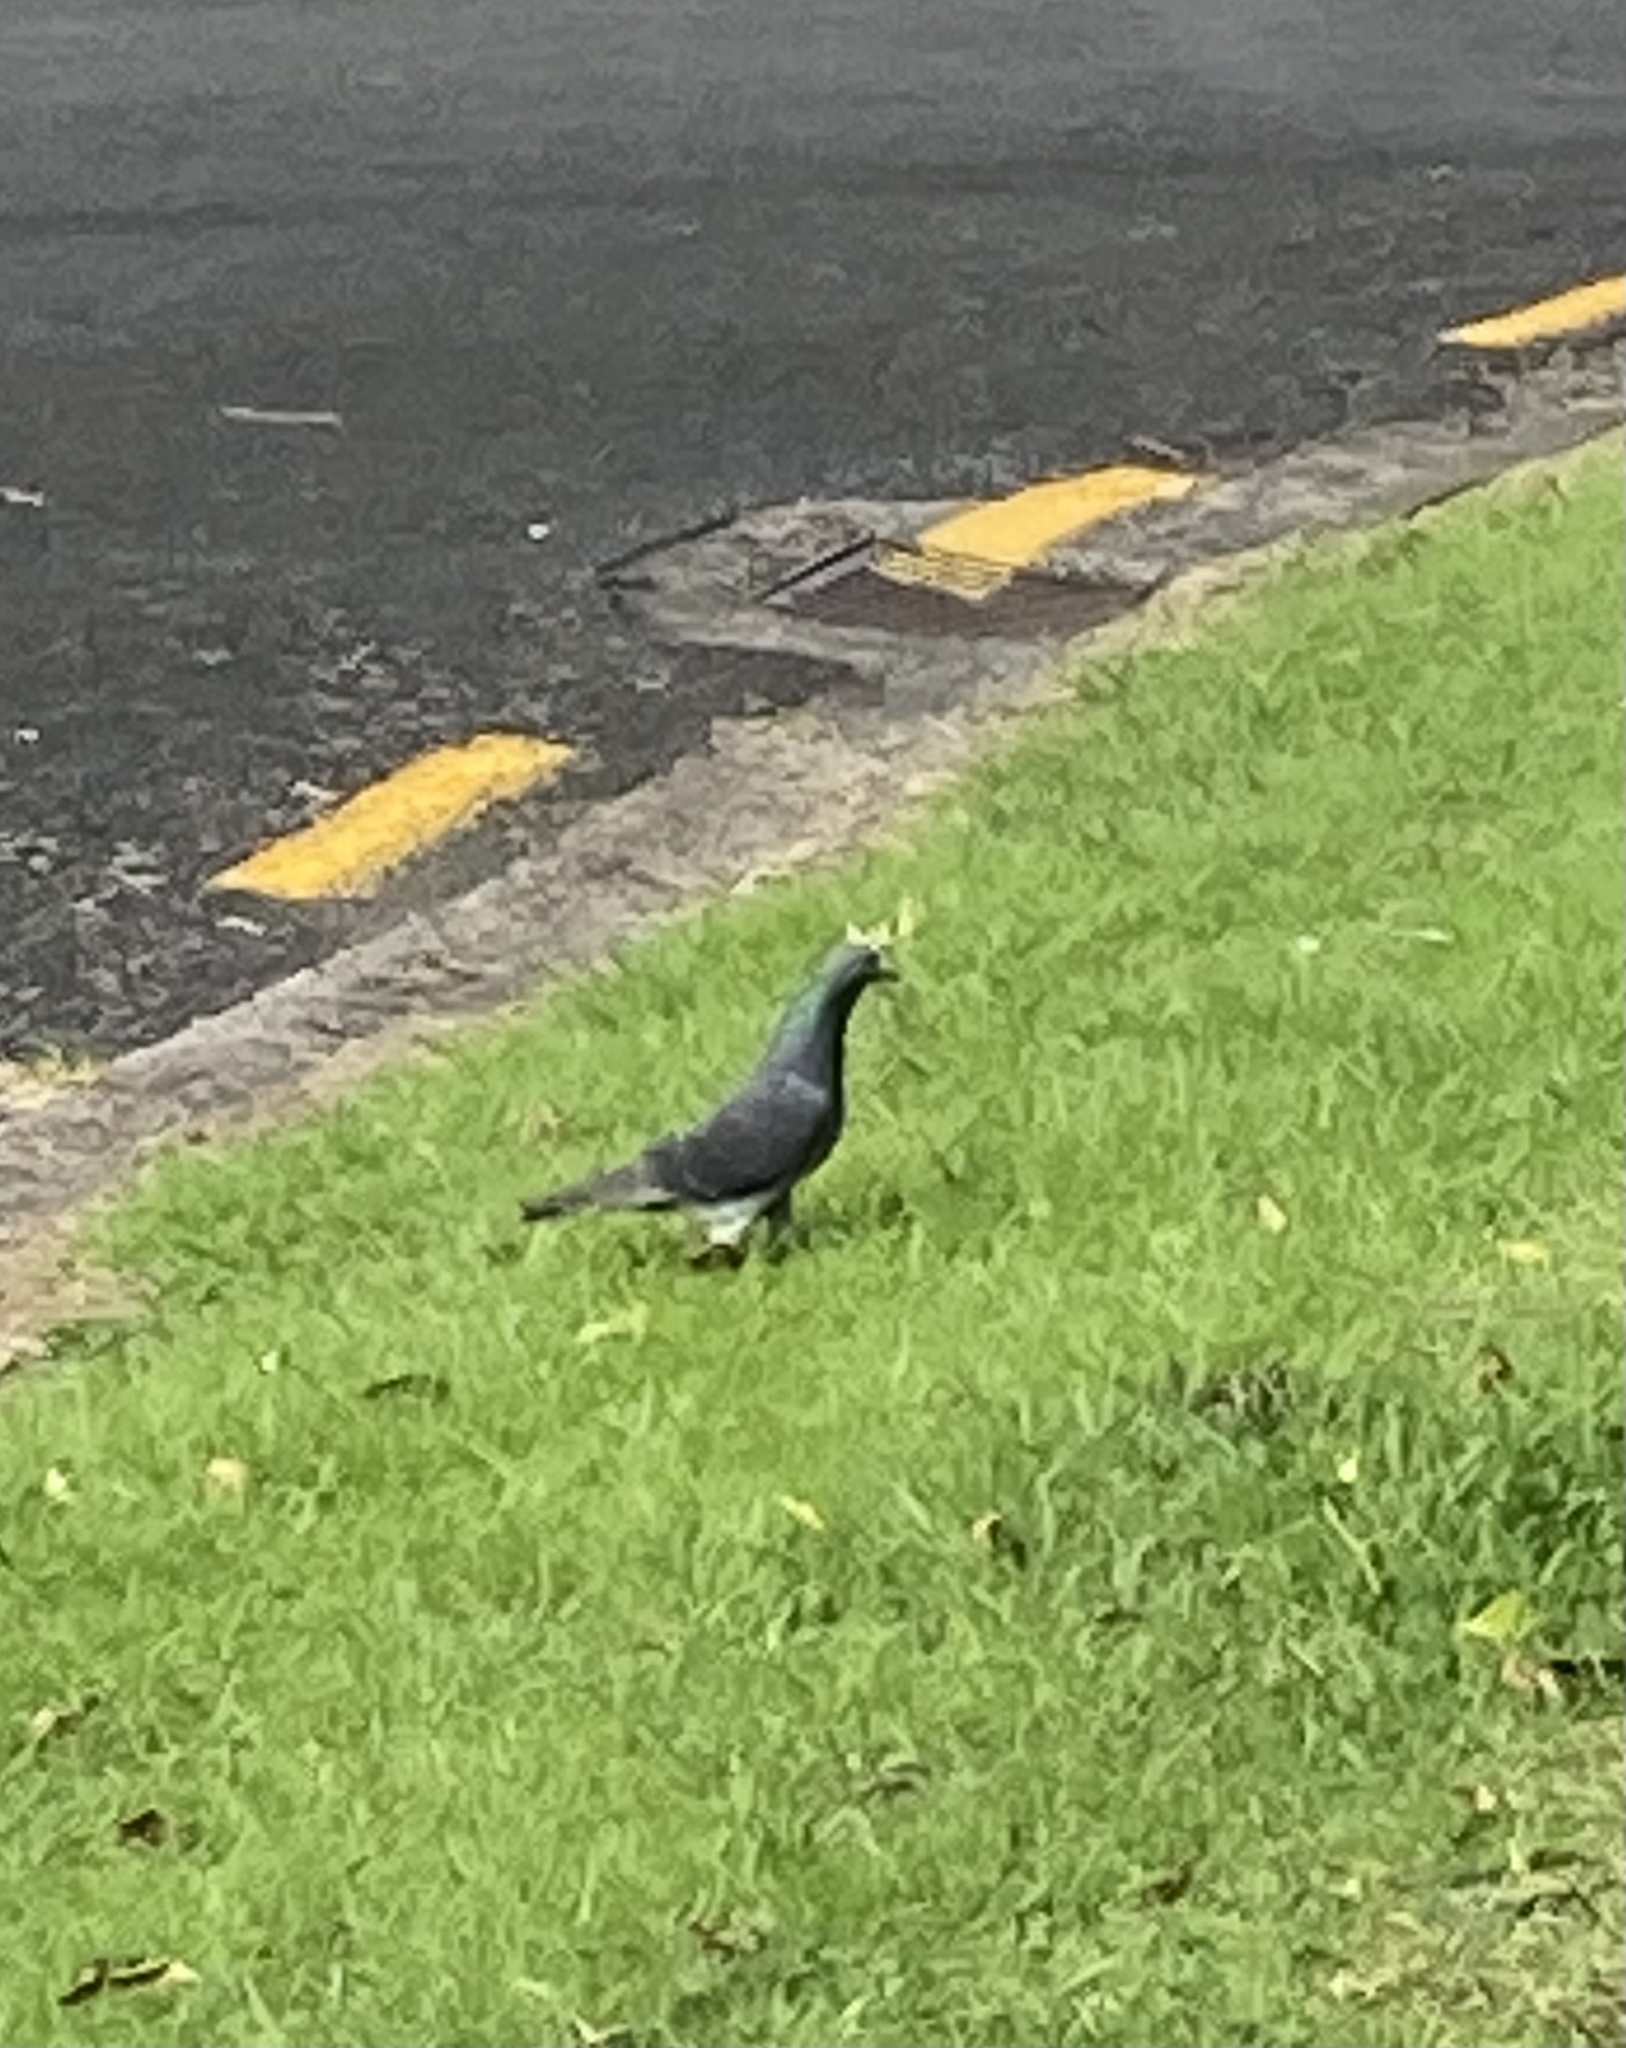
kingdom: Animalia
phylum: Chordata
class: Aves
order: Columbiformes
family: Columbidae
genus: Columba
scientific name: Columba livia
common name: Rock pigeon
